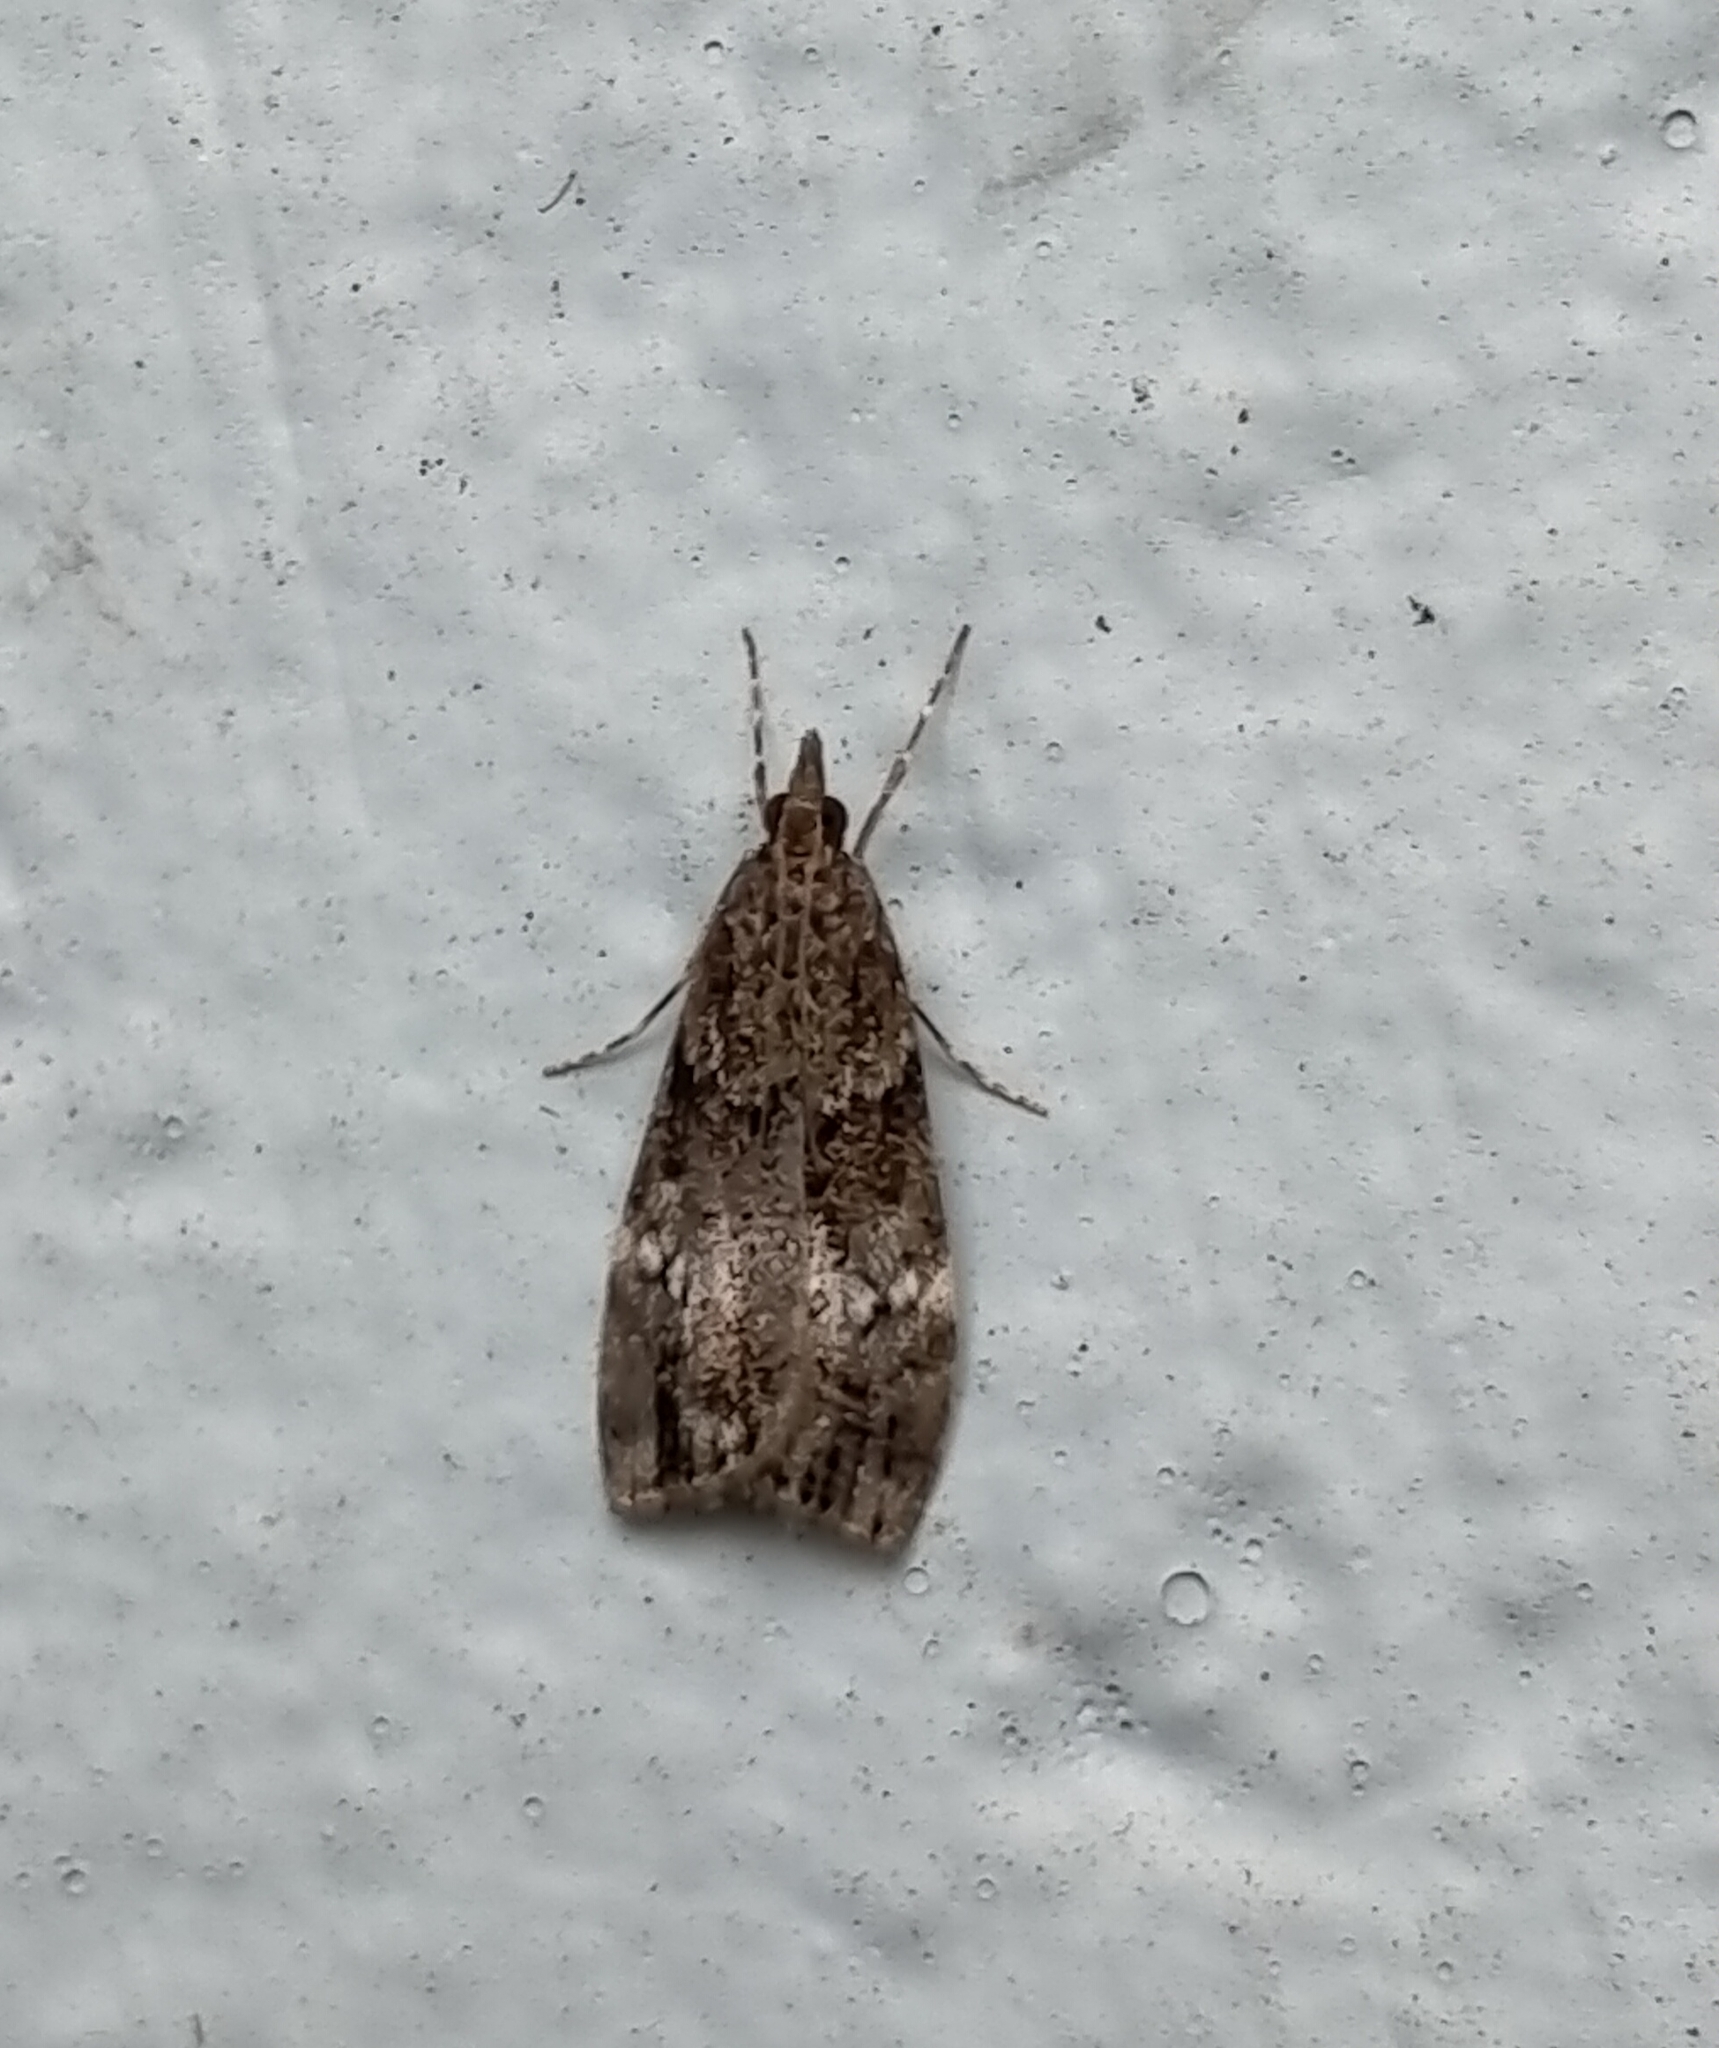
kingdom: Animalia
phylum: Arthropoda
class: Insecta
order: Lepidoptera
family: Crambidae
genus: Eudonia
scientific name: Eudonia dinodes
